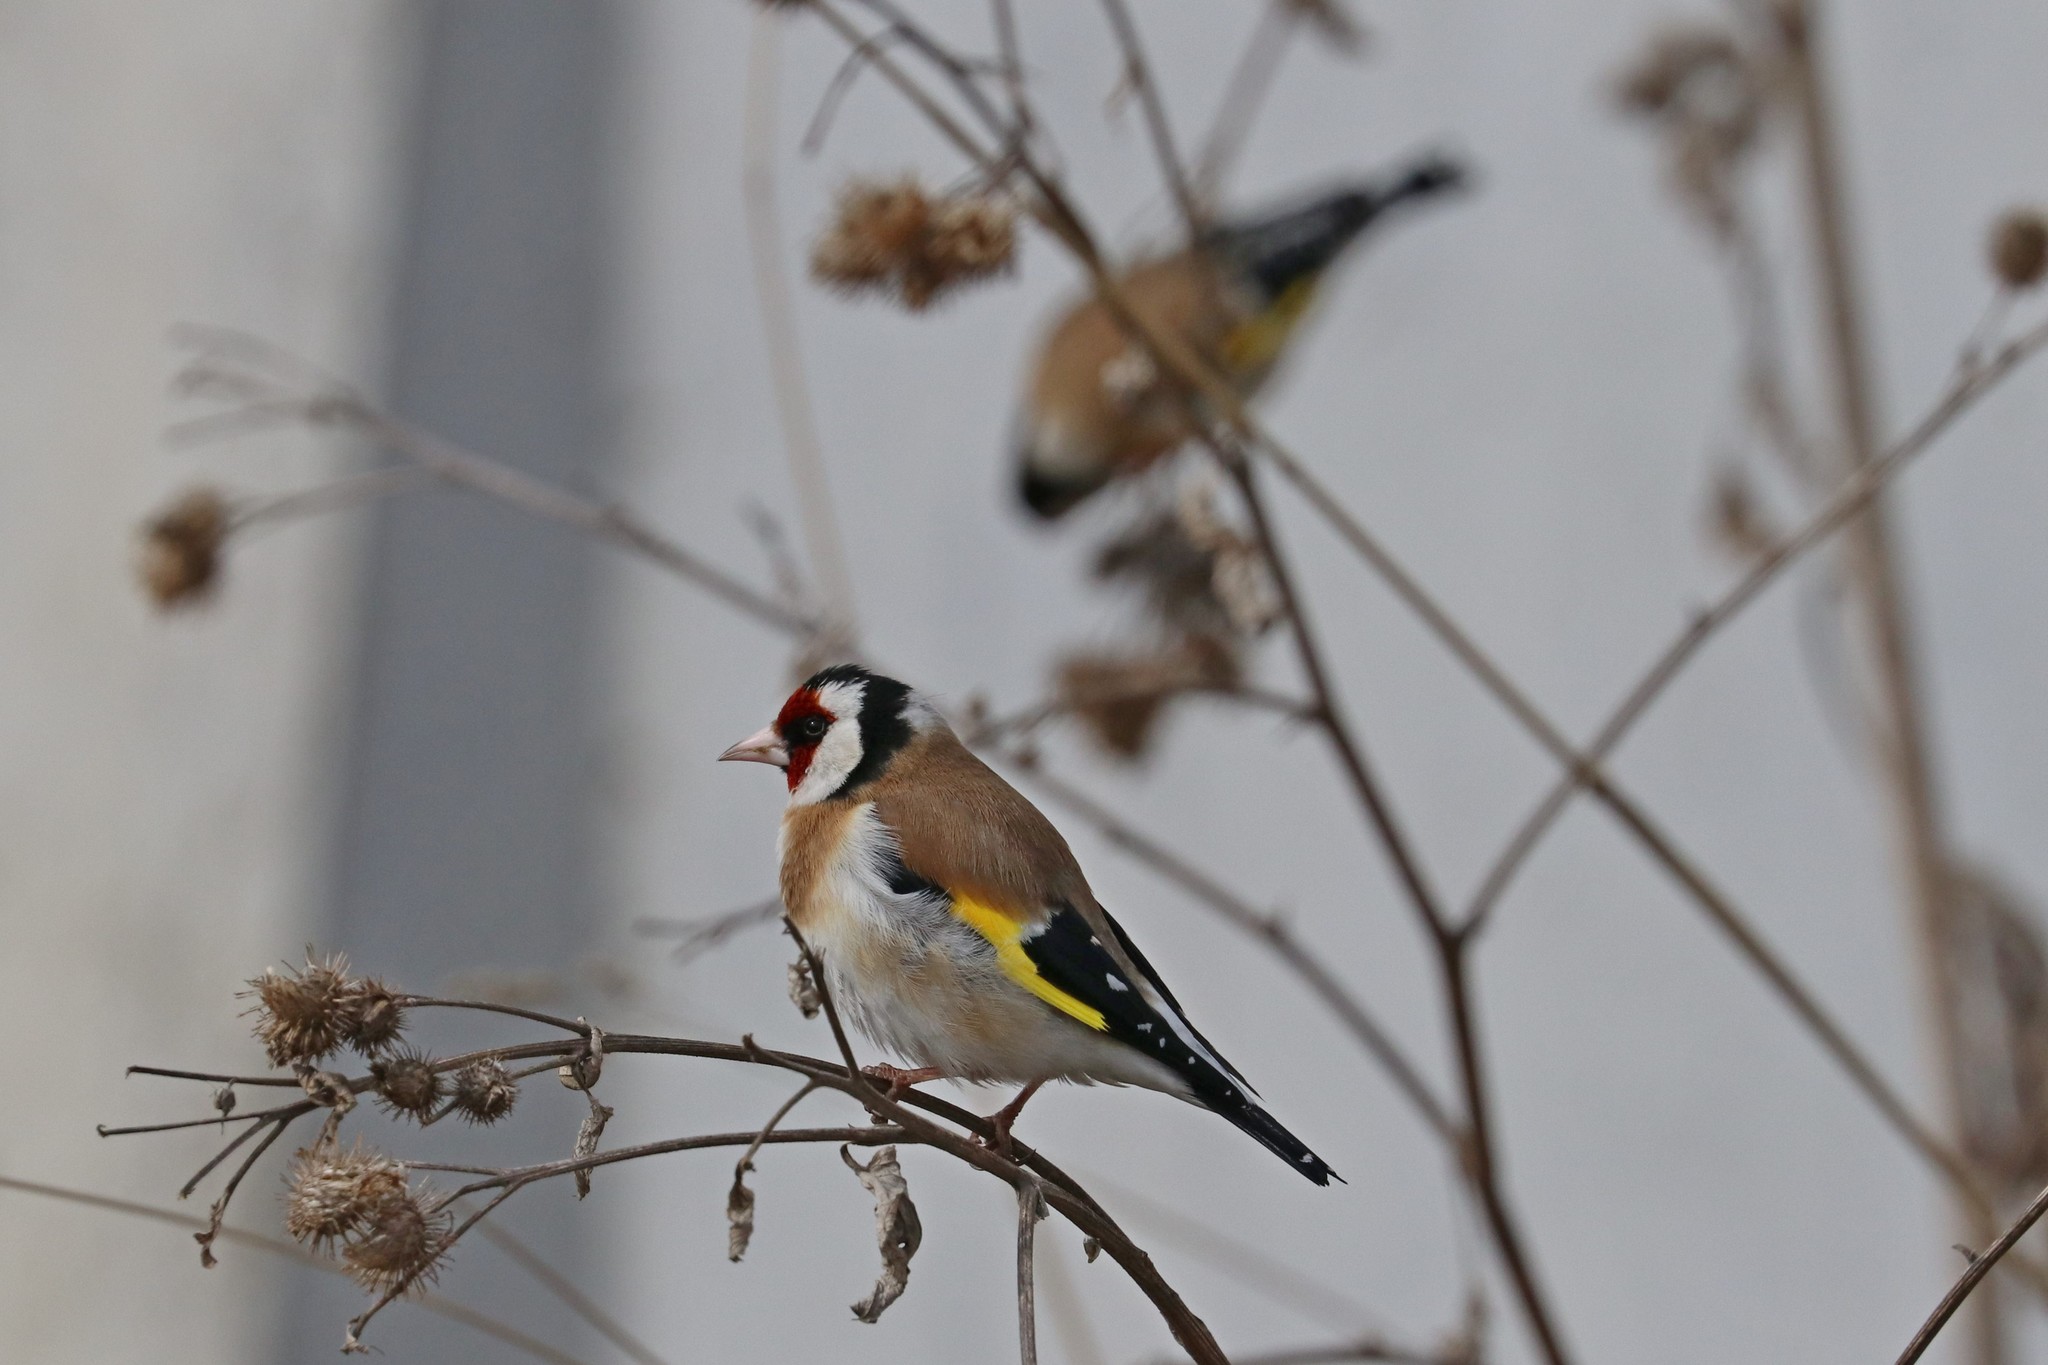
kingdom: Animalia
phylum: Chordata
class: Aves
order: Passeriformes
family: Fringillidae
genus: Carduelis
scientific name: Carduelis carduelis
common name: European goldfinch
